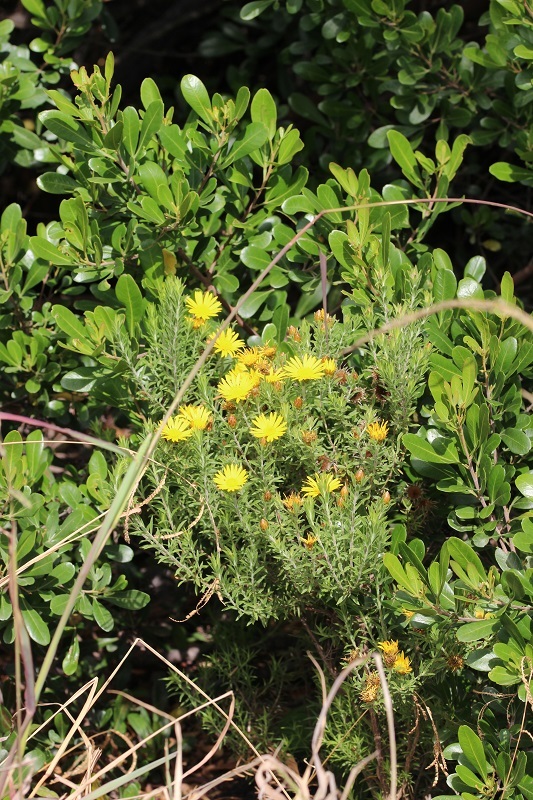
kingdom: Plantae
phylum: Tracheophyta
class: Magnoliopsida
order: Asterales
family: Asteraceae
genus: Oedera
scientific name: Oedera calycina
